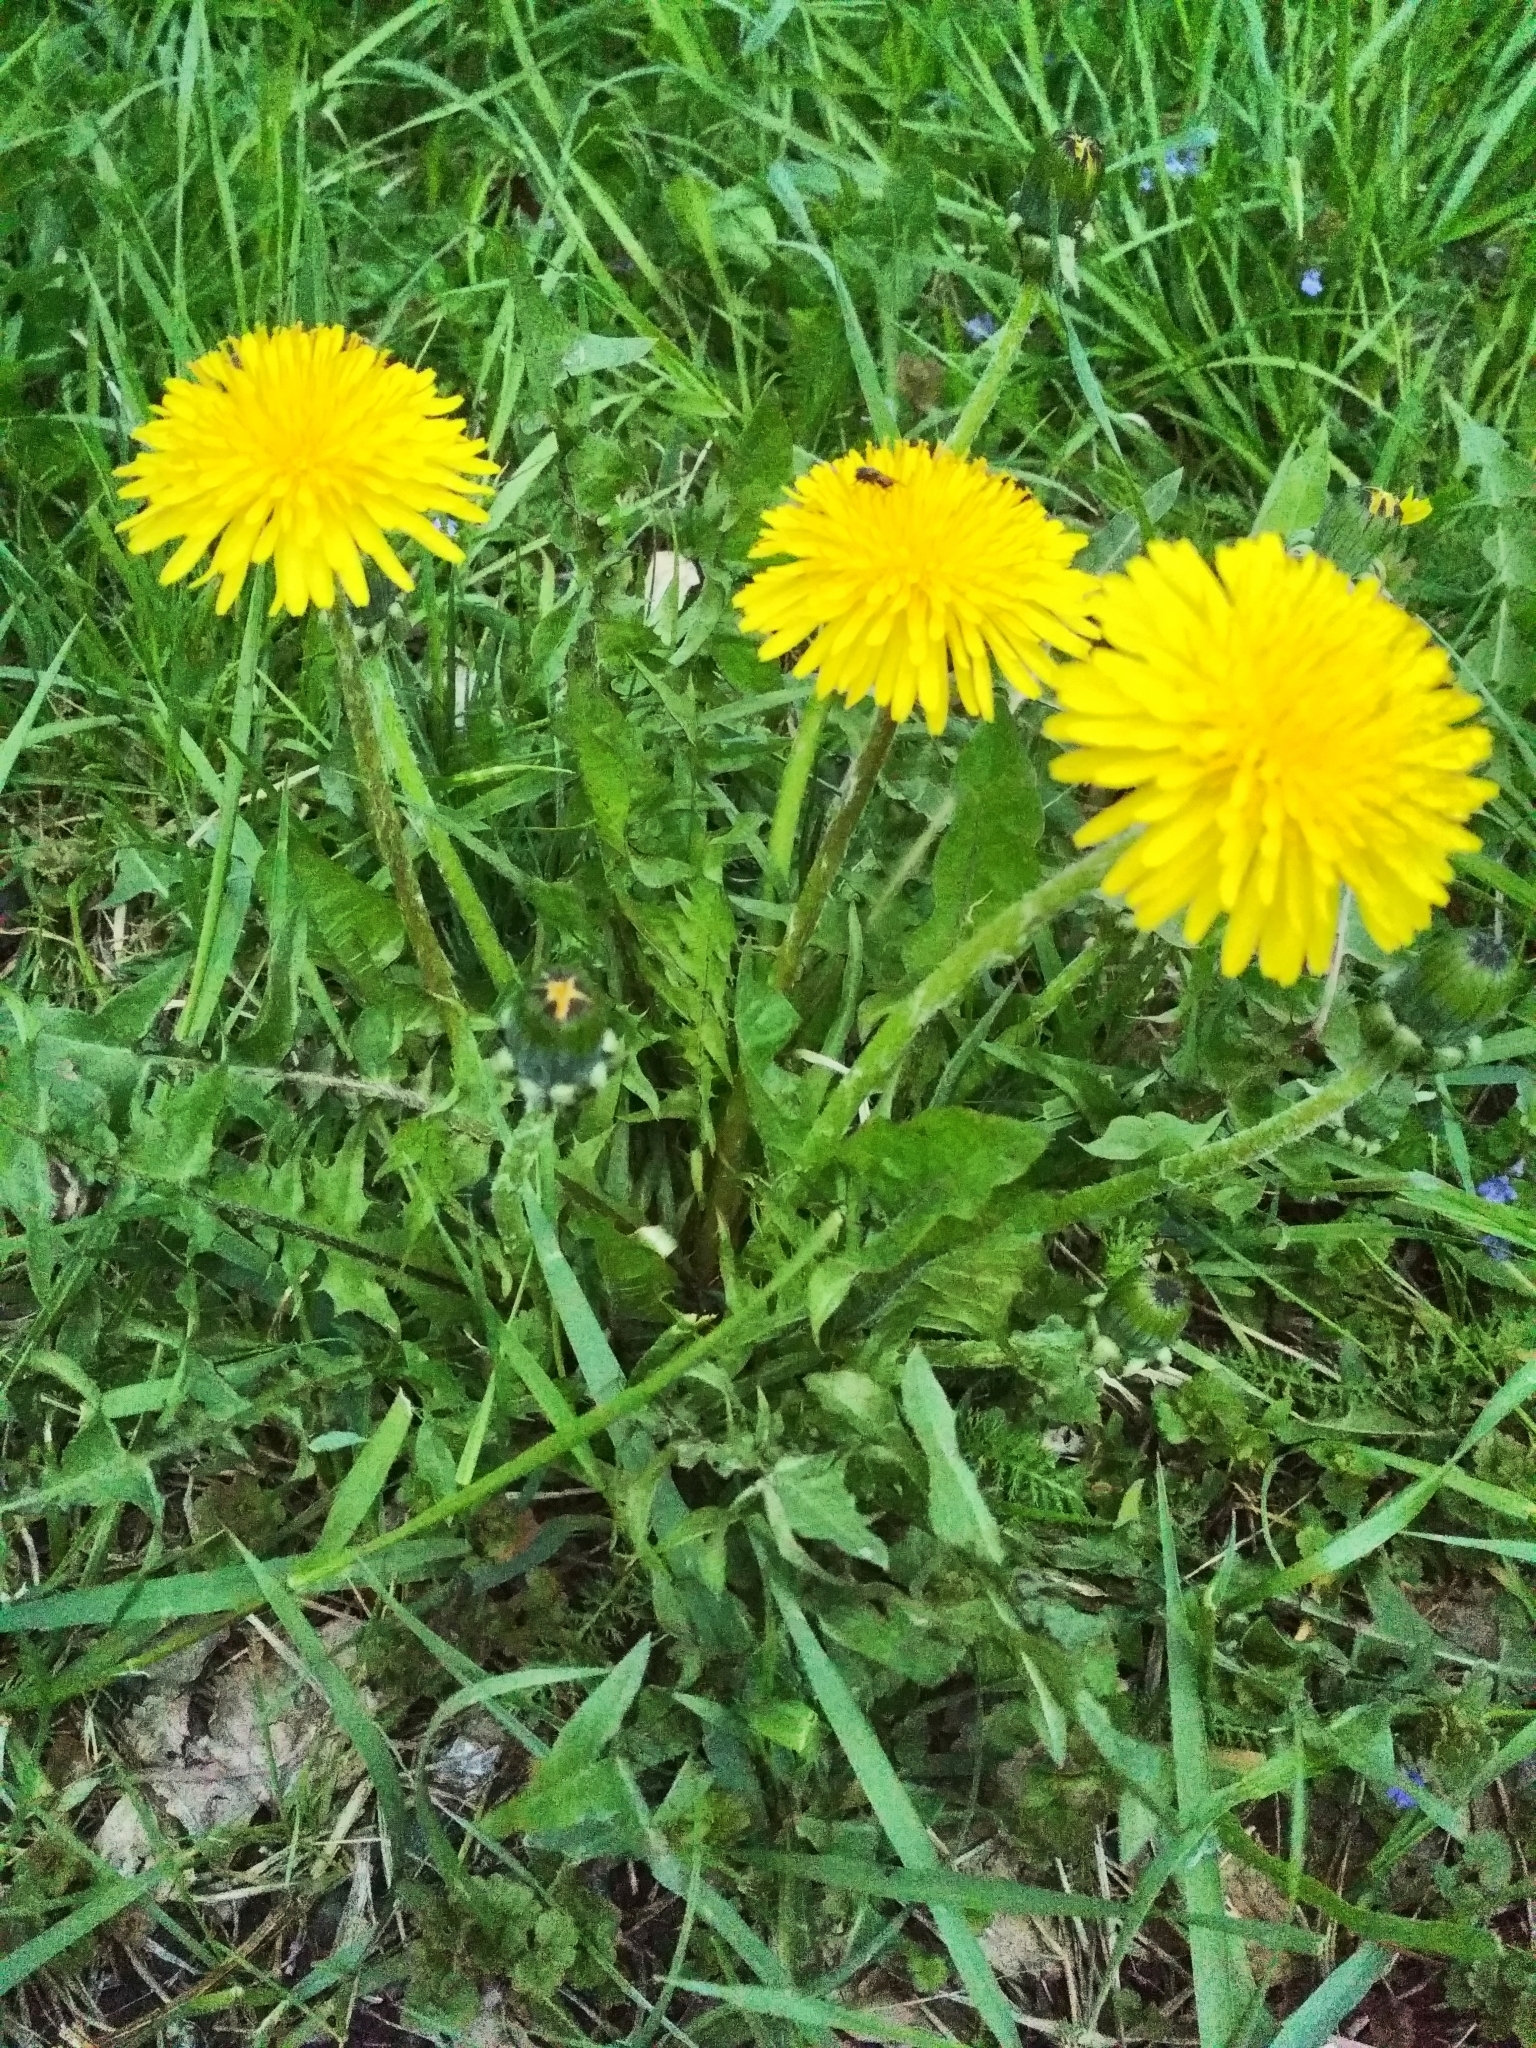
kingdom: Plantae
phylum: Tracheophyta
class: Magnoliopsida
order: Asterales
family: Asteraceae
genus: Taraxacum
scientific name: Taraxacum officinale
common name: Common dandelion
